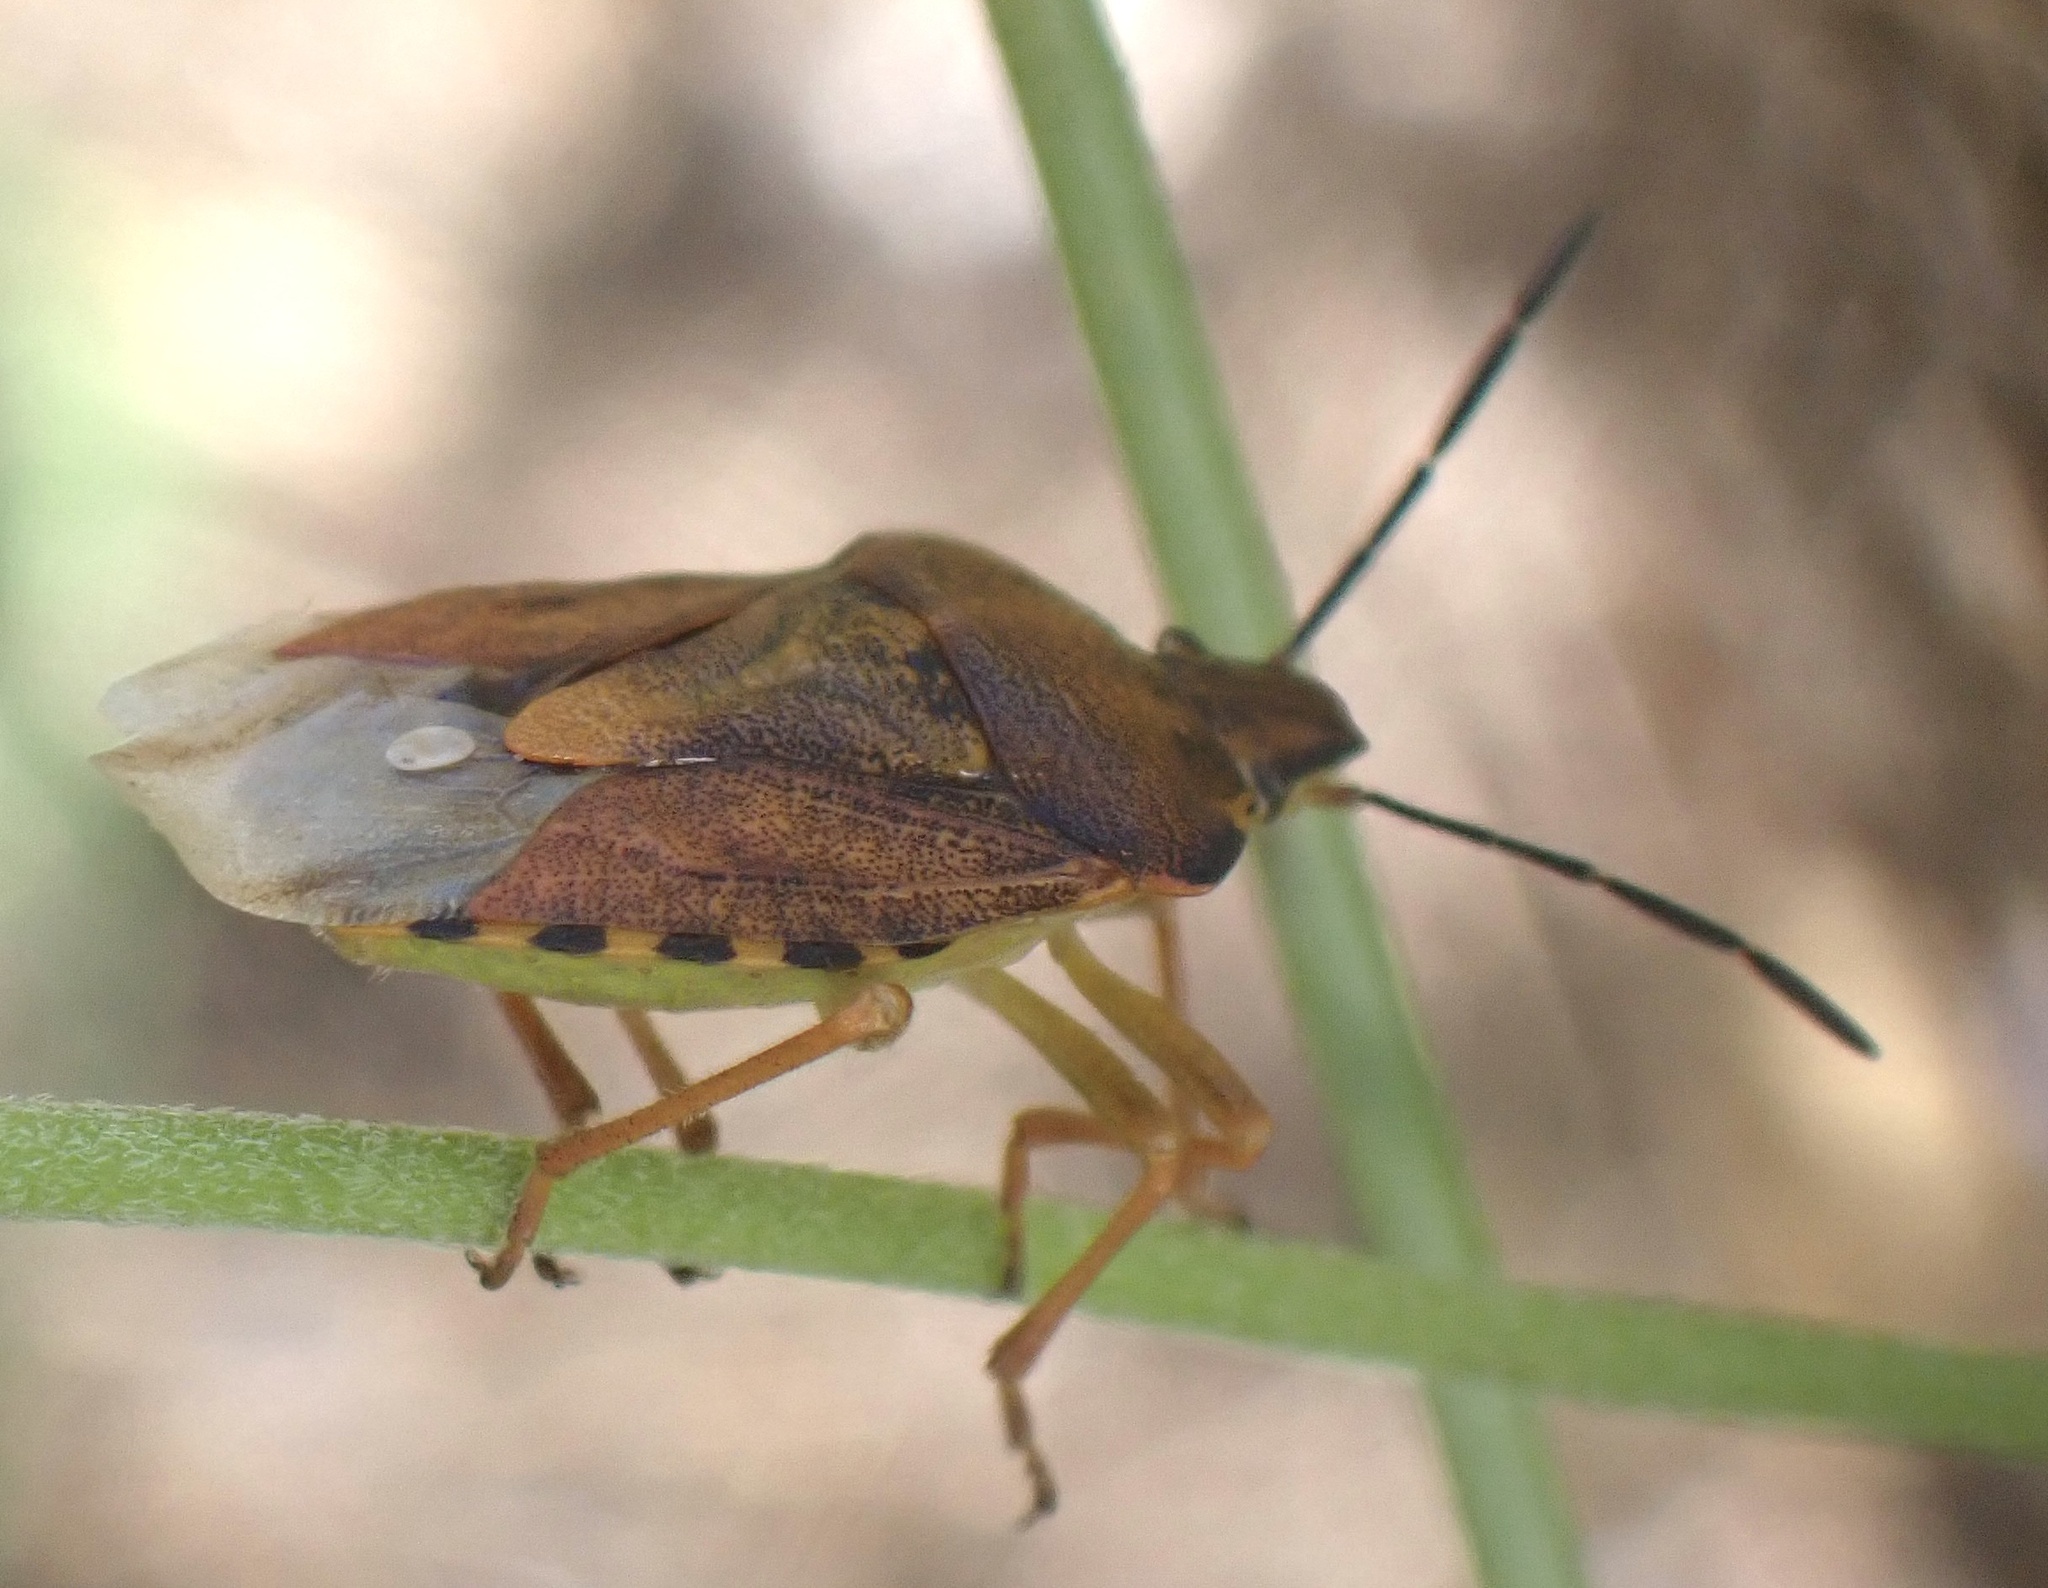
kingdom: Animalia
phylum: Arthropoda
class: Insecta
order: Hemiptera
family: Pentatomidae
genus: Carpocoris
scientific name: Carpocoris purpureipennis
